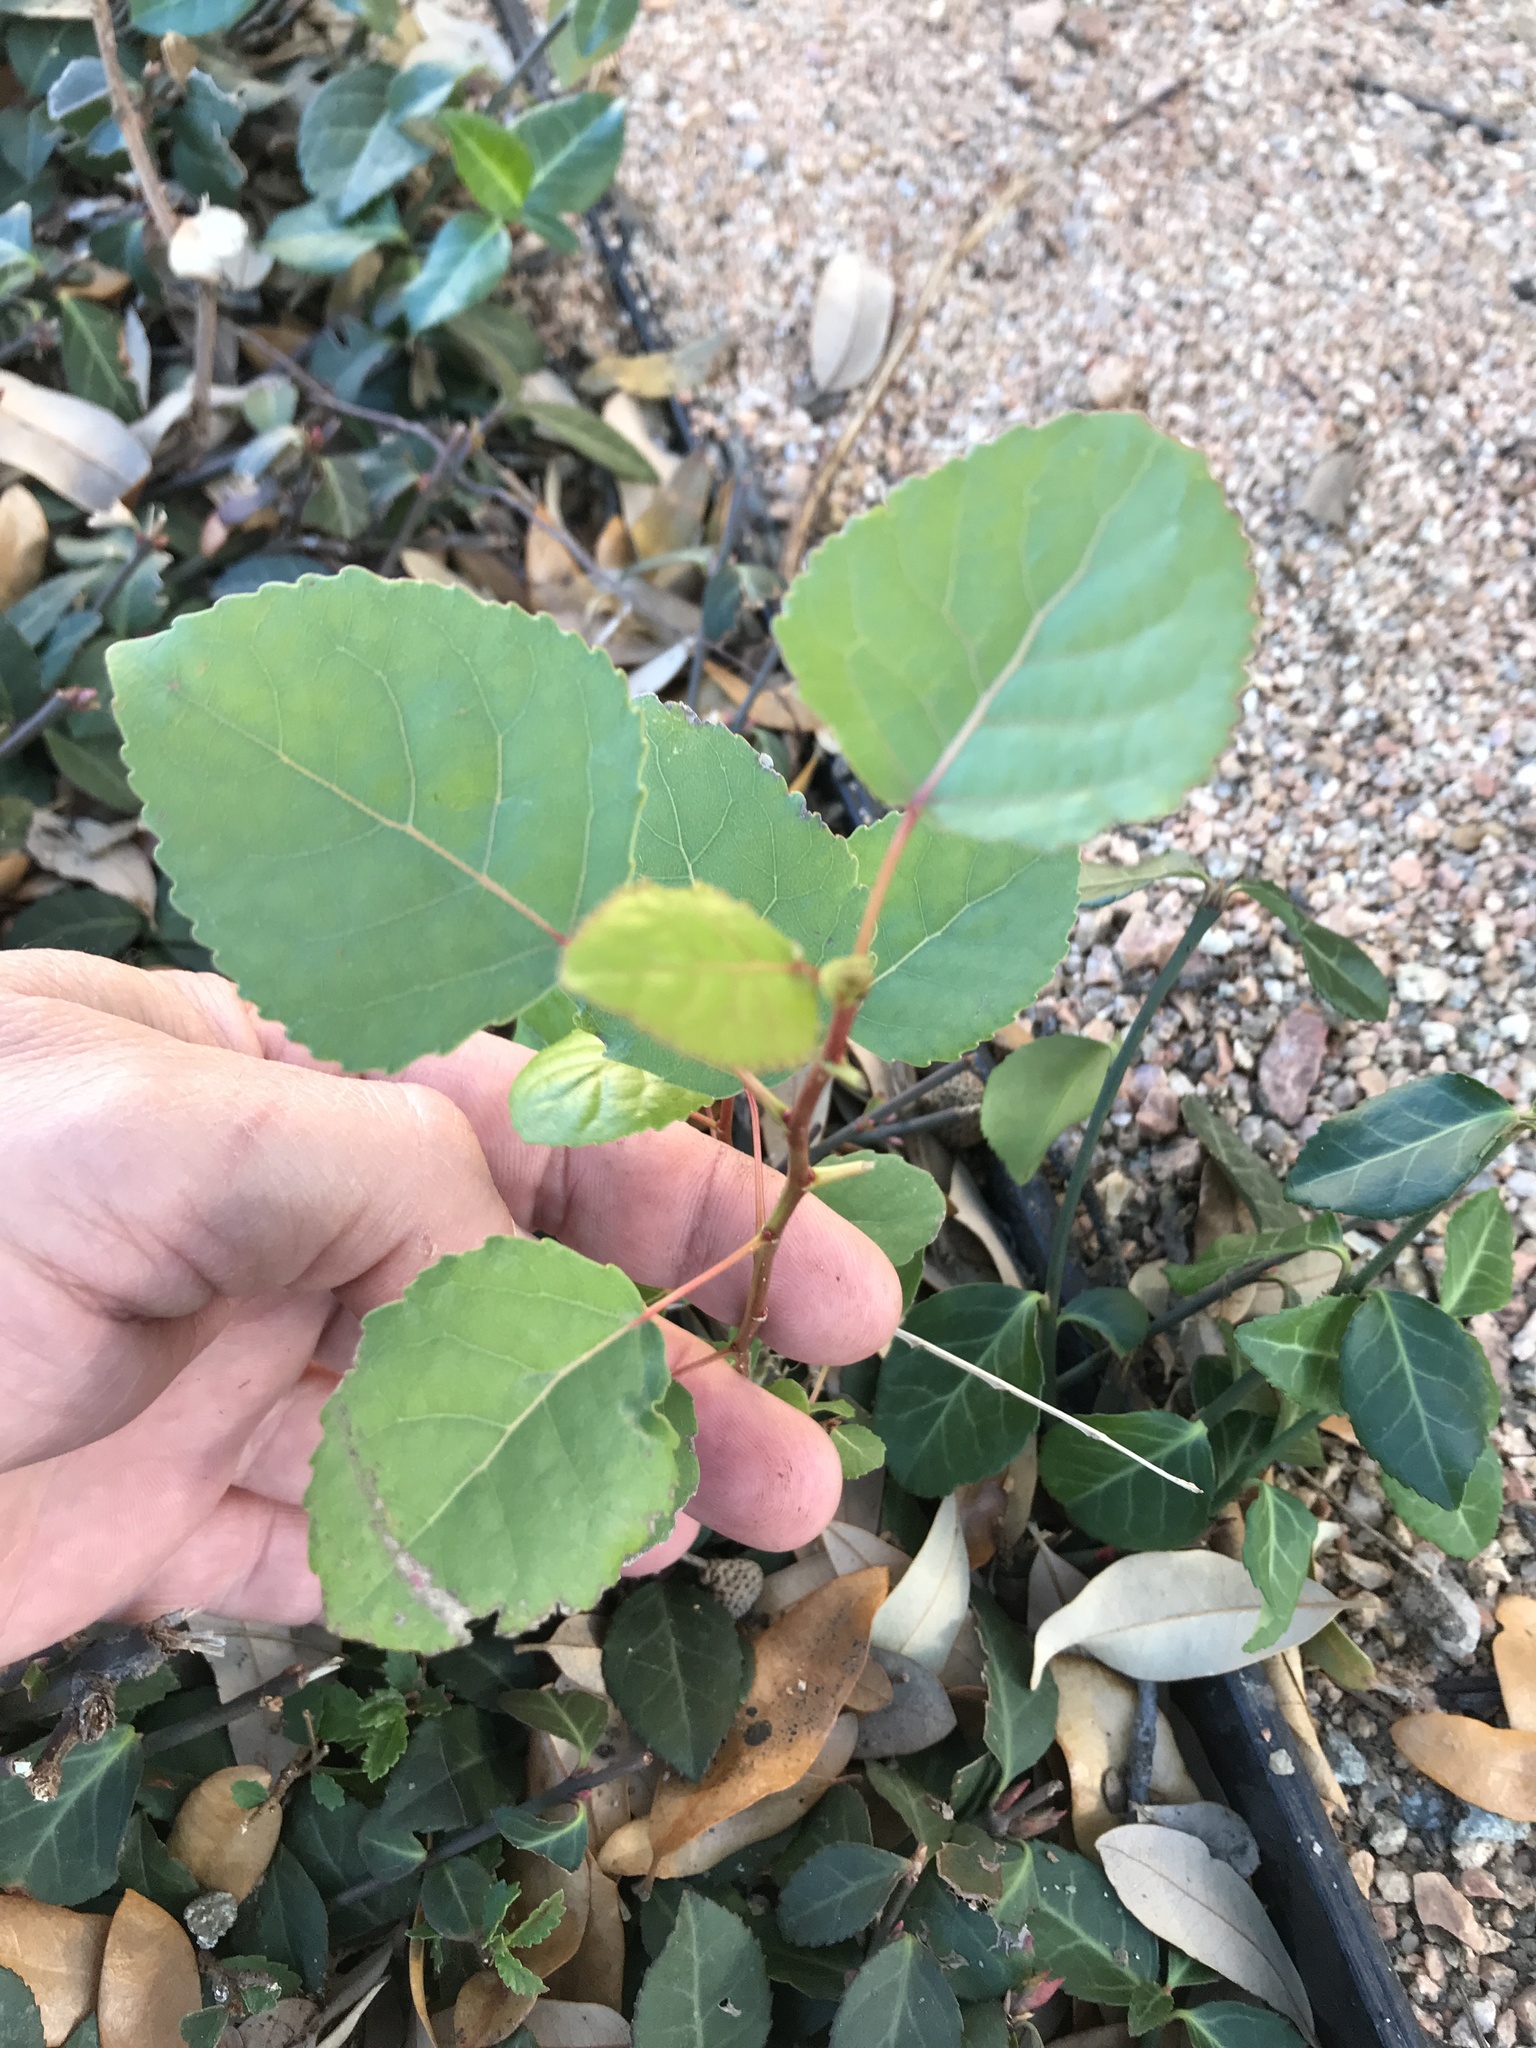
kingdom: Plantae
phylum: Tracheophyta
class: Magnoliopsida
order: Malpighiales
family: Salicaceae
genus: Populus
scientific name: Populus deltoides
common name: Eastern cottonwood
